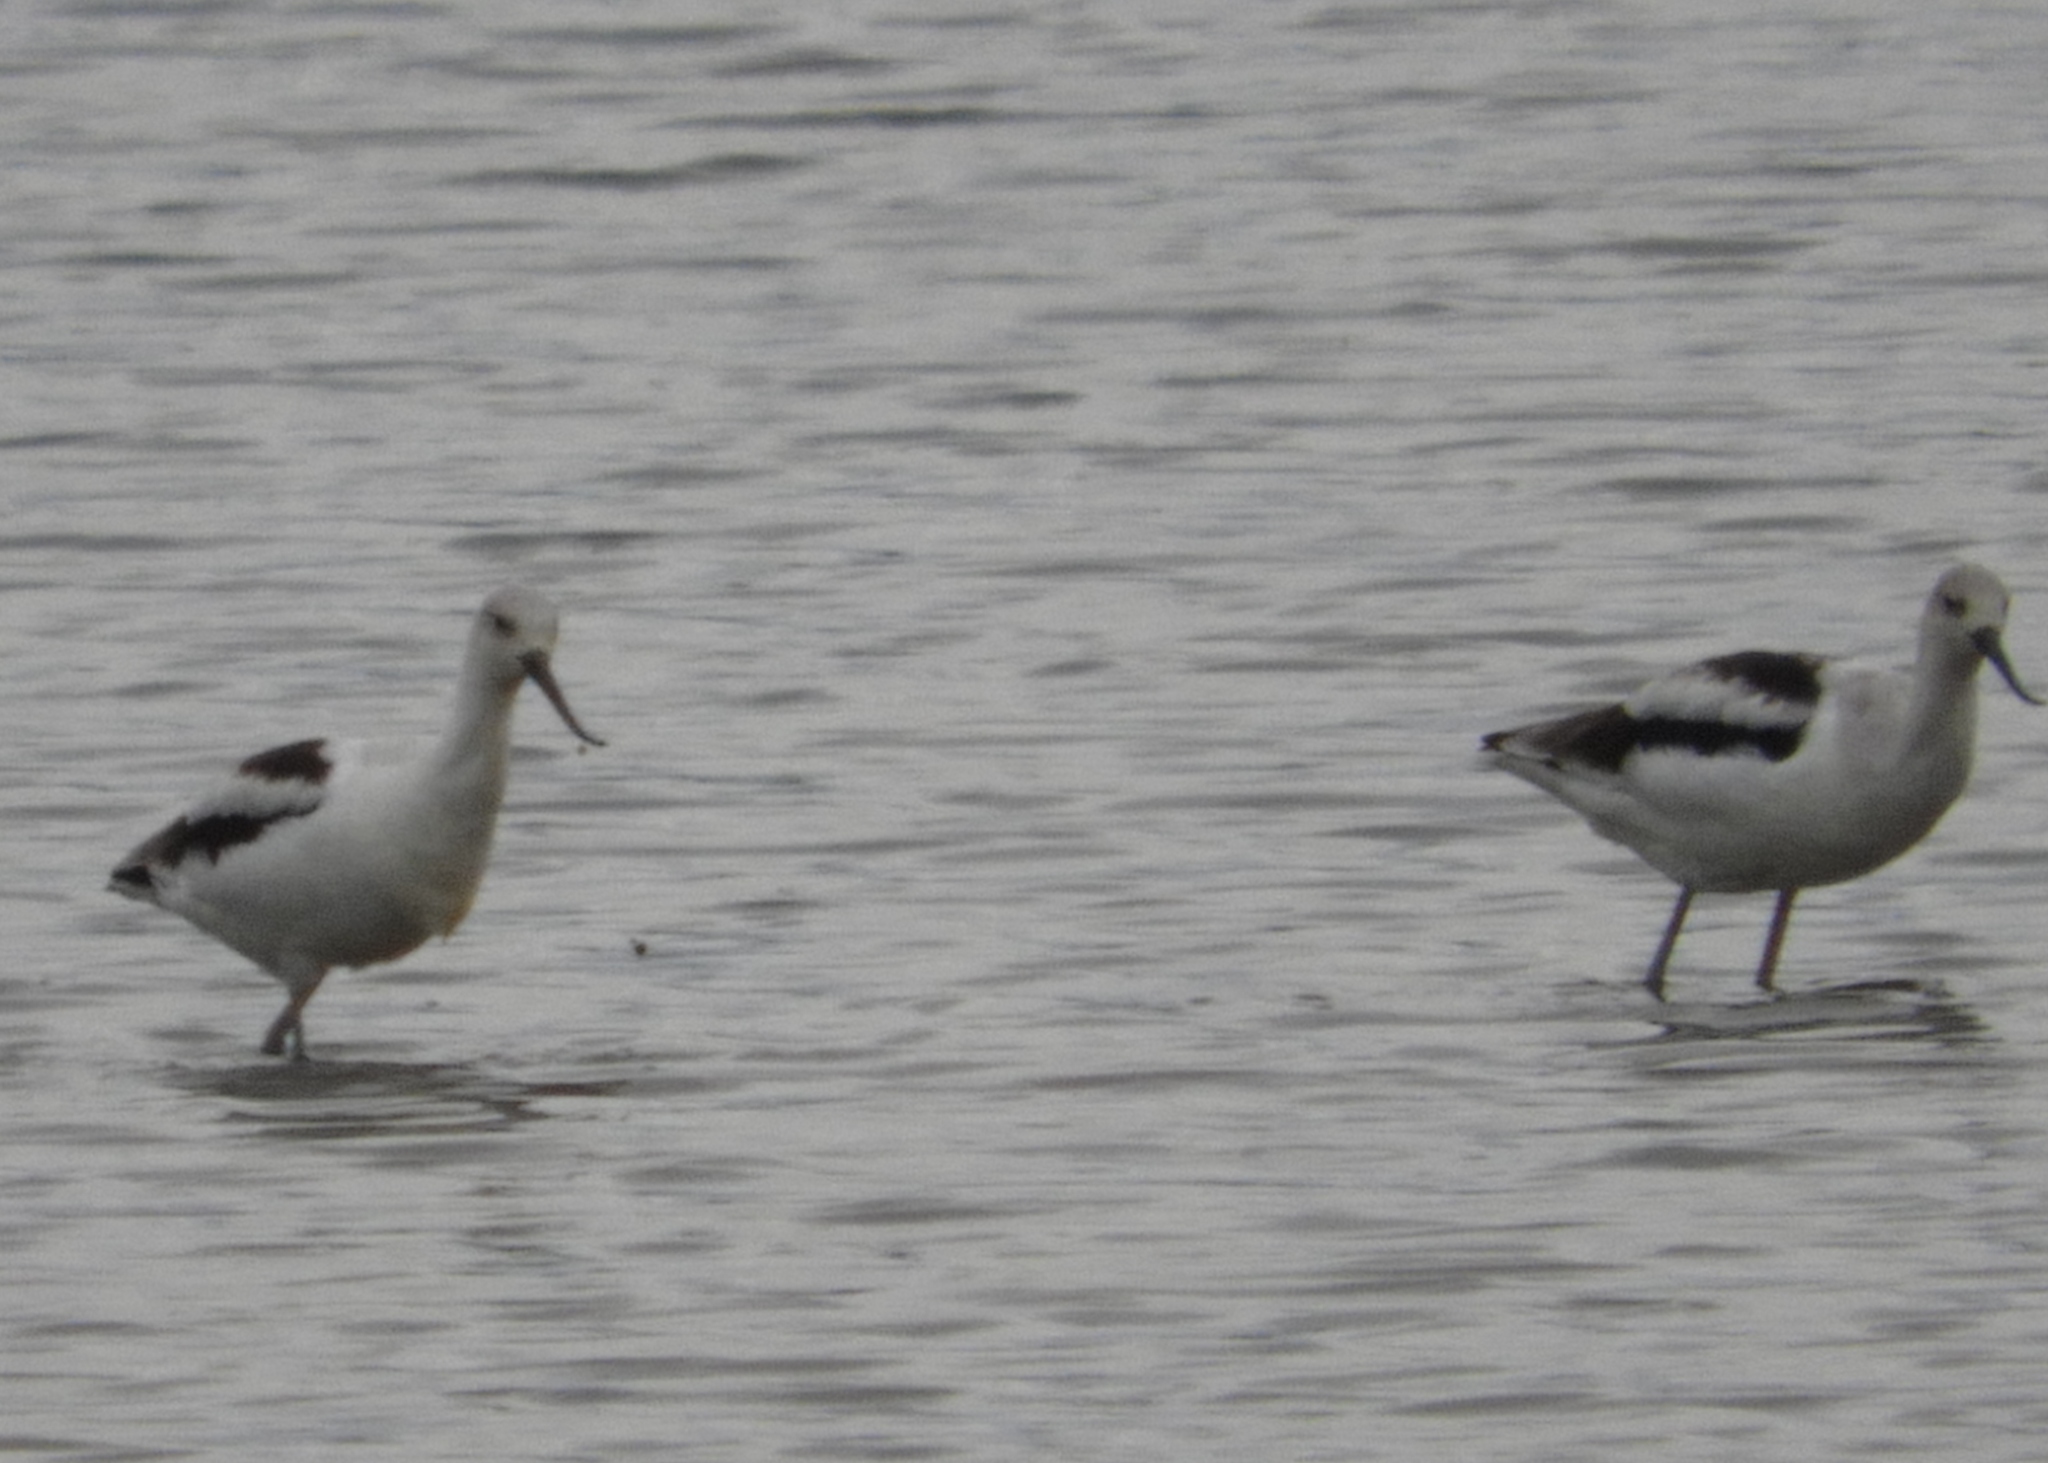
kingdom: Animalia
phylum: Chordata
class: Aves
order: Charadriiformes
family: Recurvirostridae
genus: Recurvirostra
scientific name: Recurvirostra americana
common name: American avocet
